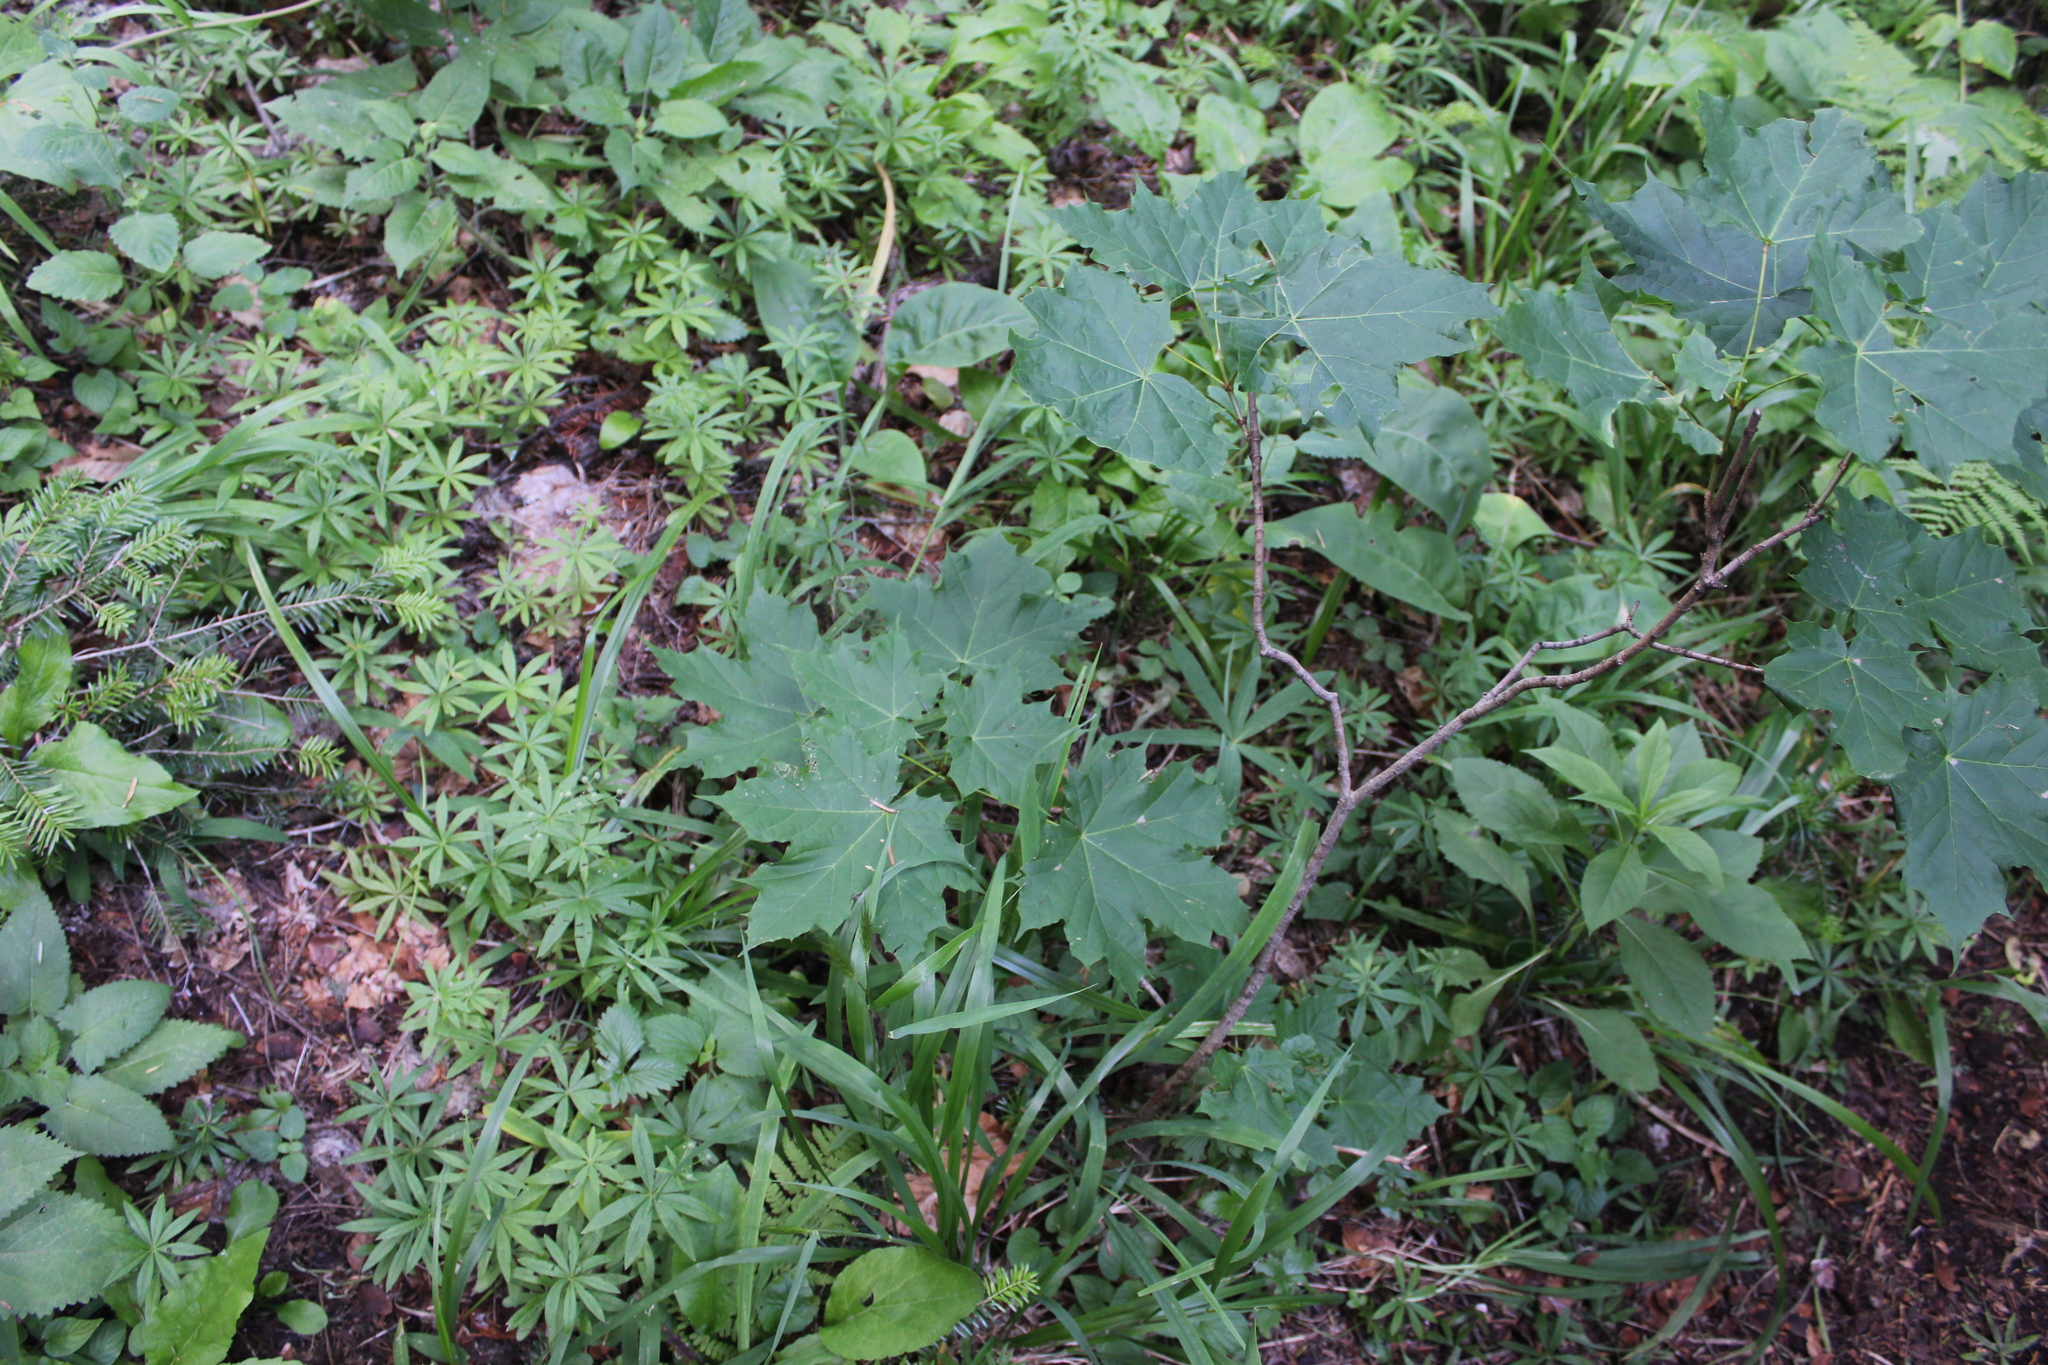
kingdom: Plantae
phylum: Tracheophyta
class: Magnoliopsida
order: Sapindales
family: Sapindaceae
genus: Acer
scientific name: Acer platanoides
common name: Norway maple
